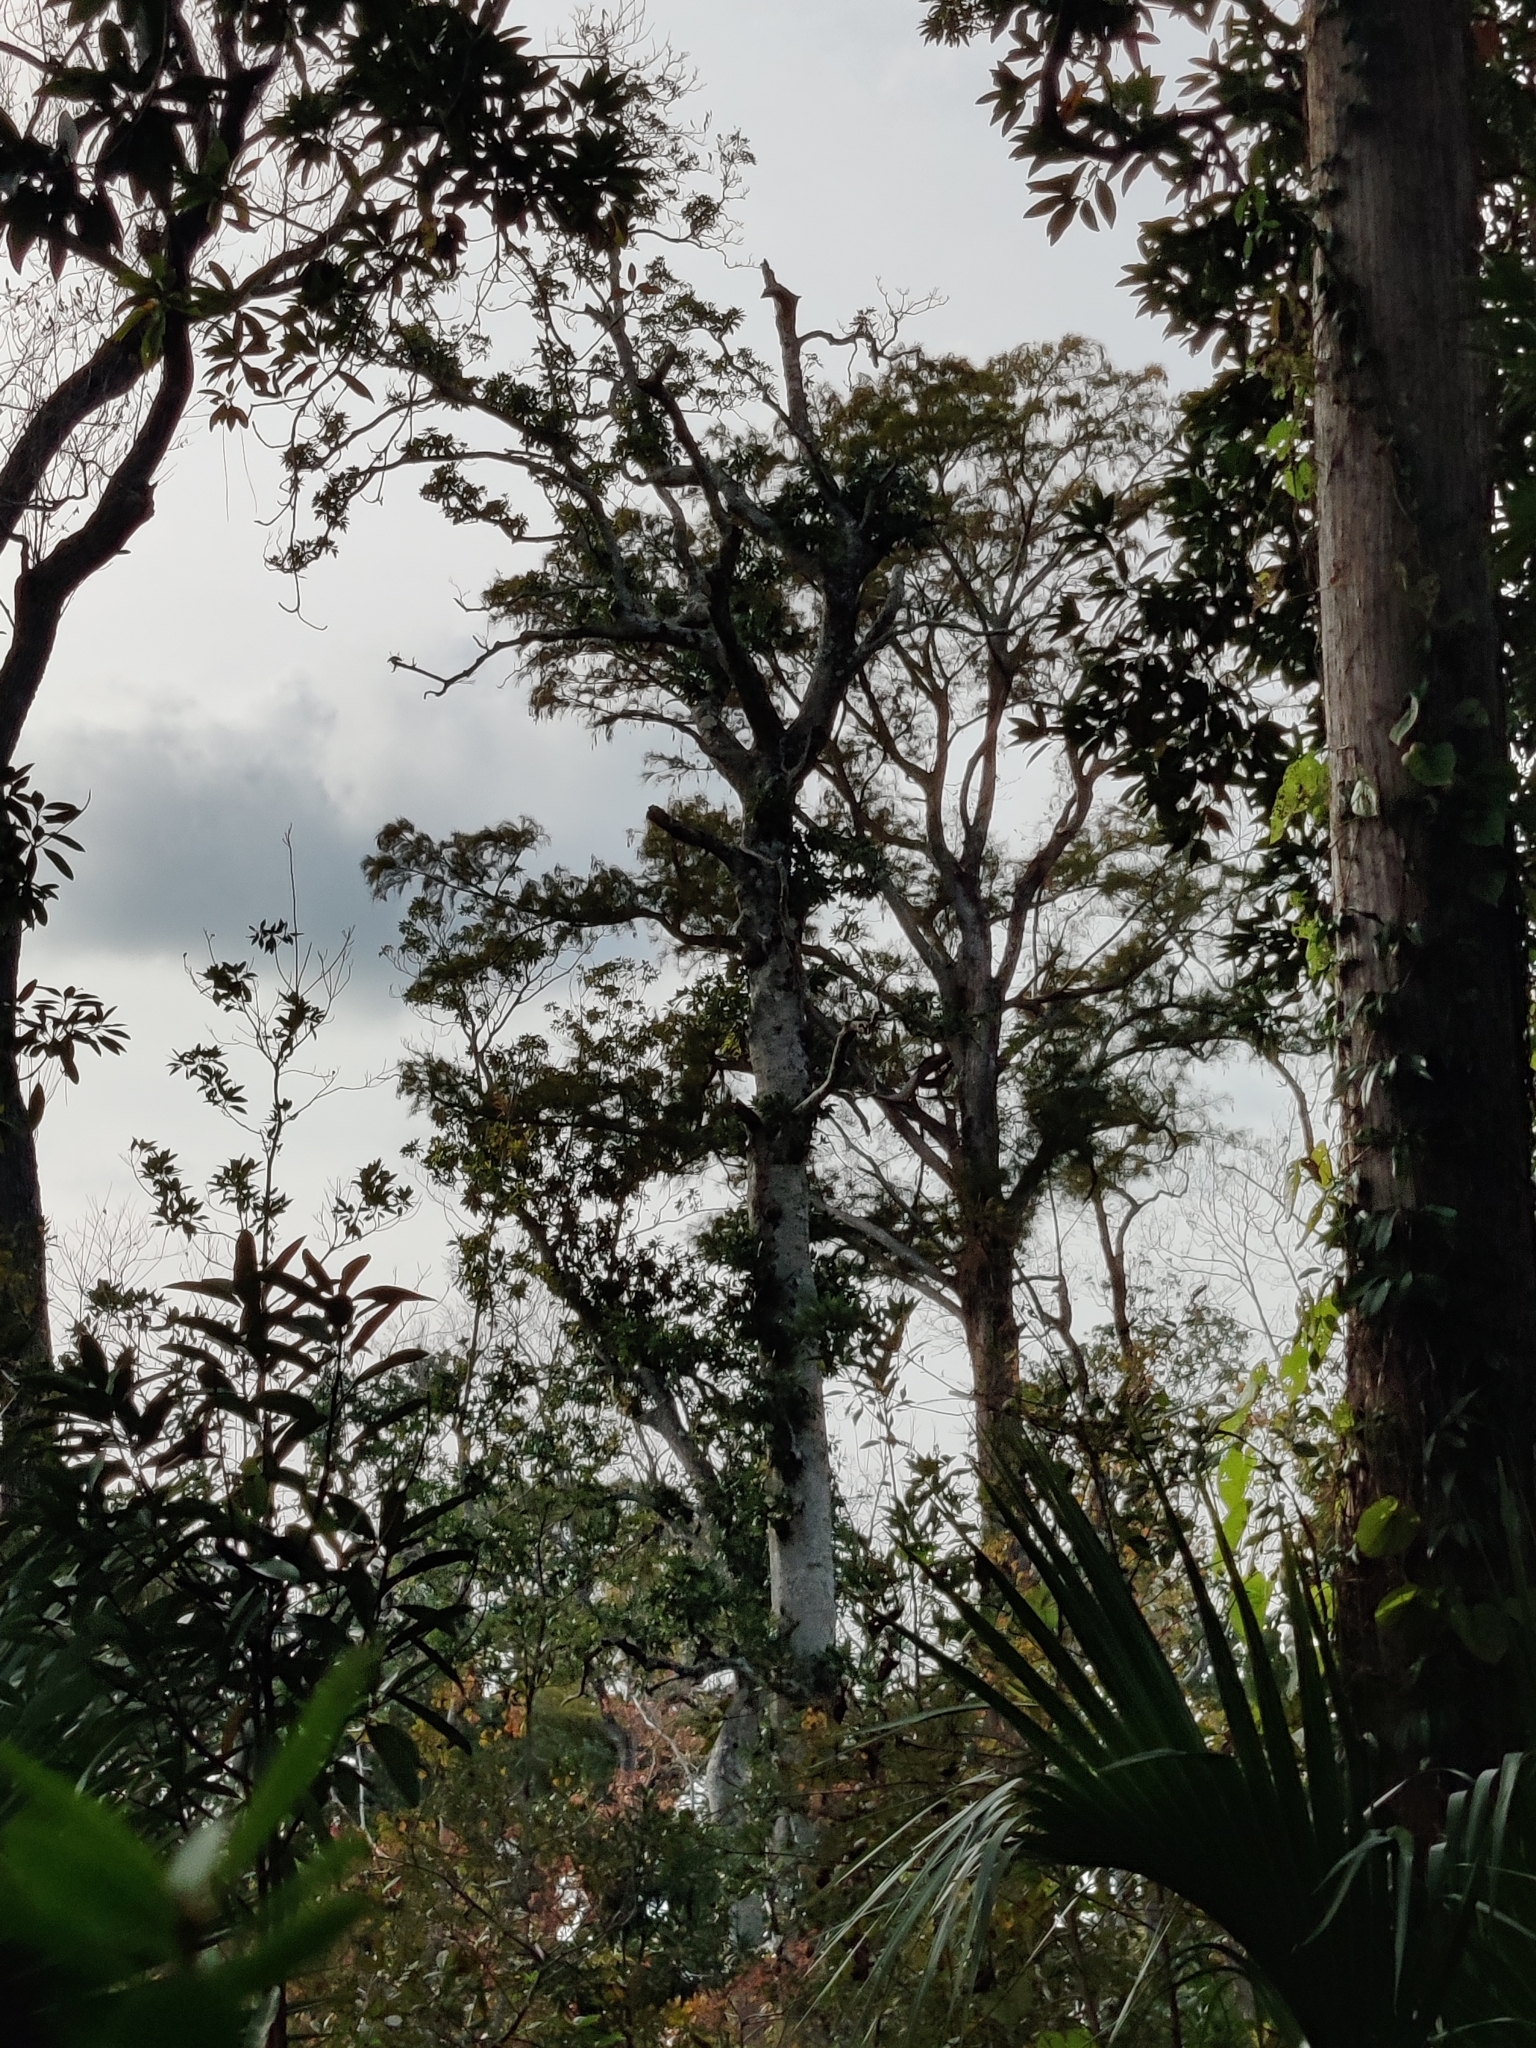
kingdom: Plantae
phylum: Tracheophyta
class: Magnoliopsida
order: Magnoliales
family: Magnoliaceae
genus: Magnolia
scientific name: Magnolia virginiana
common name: Swamp bay
